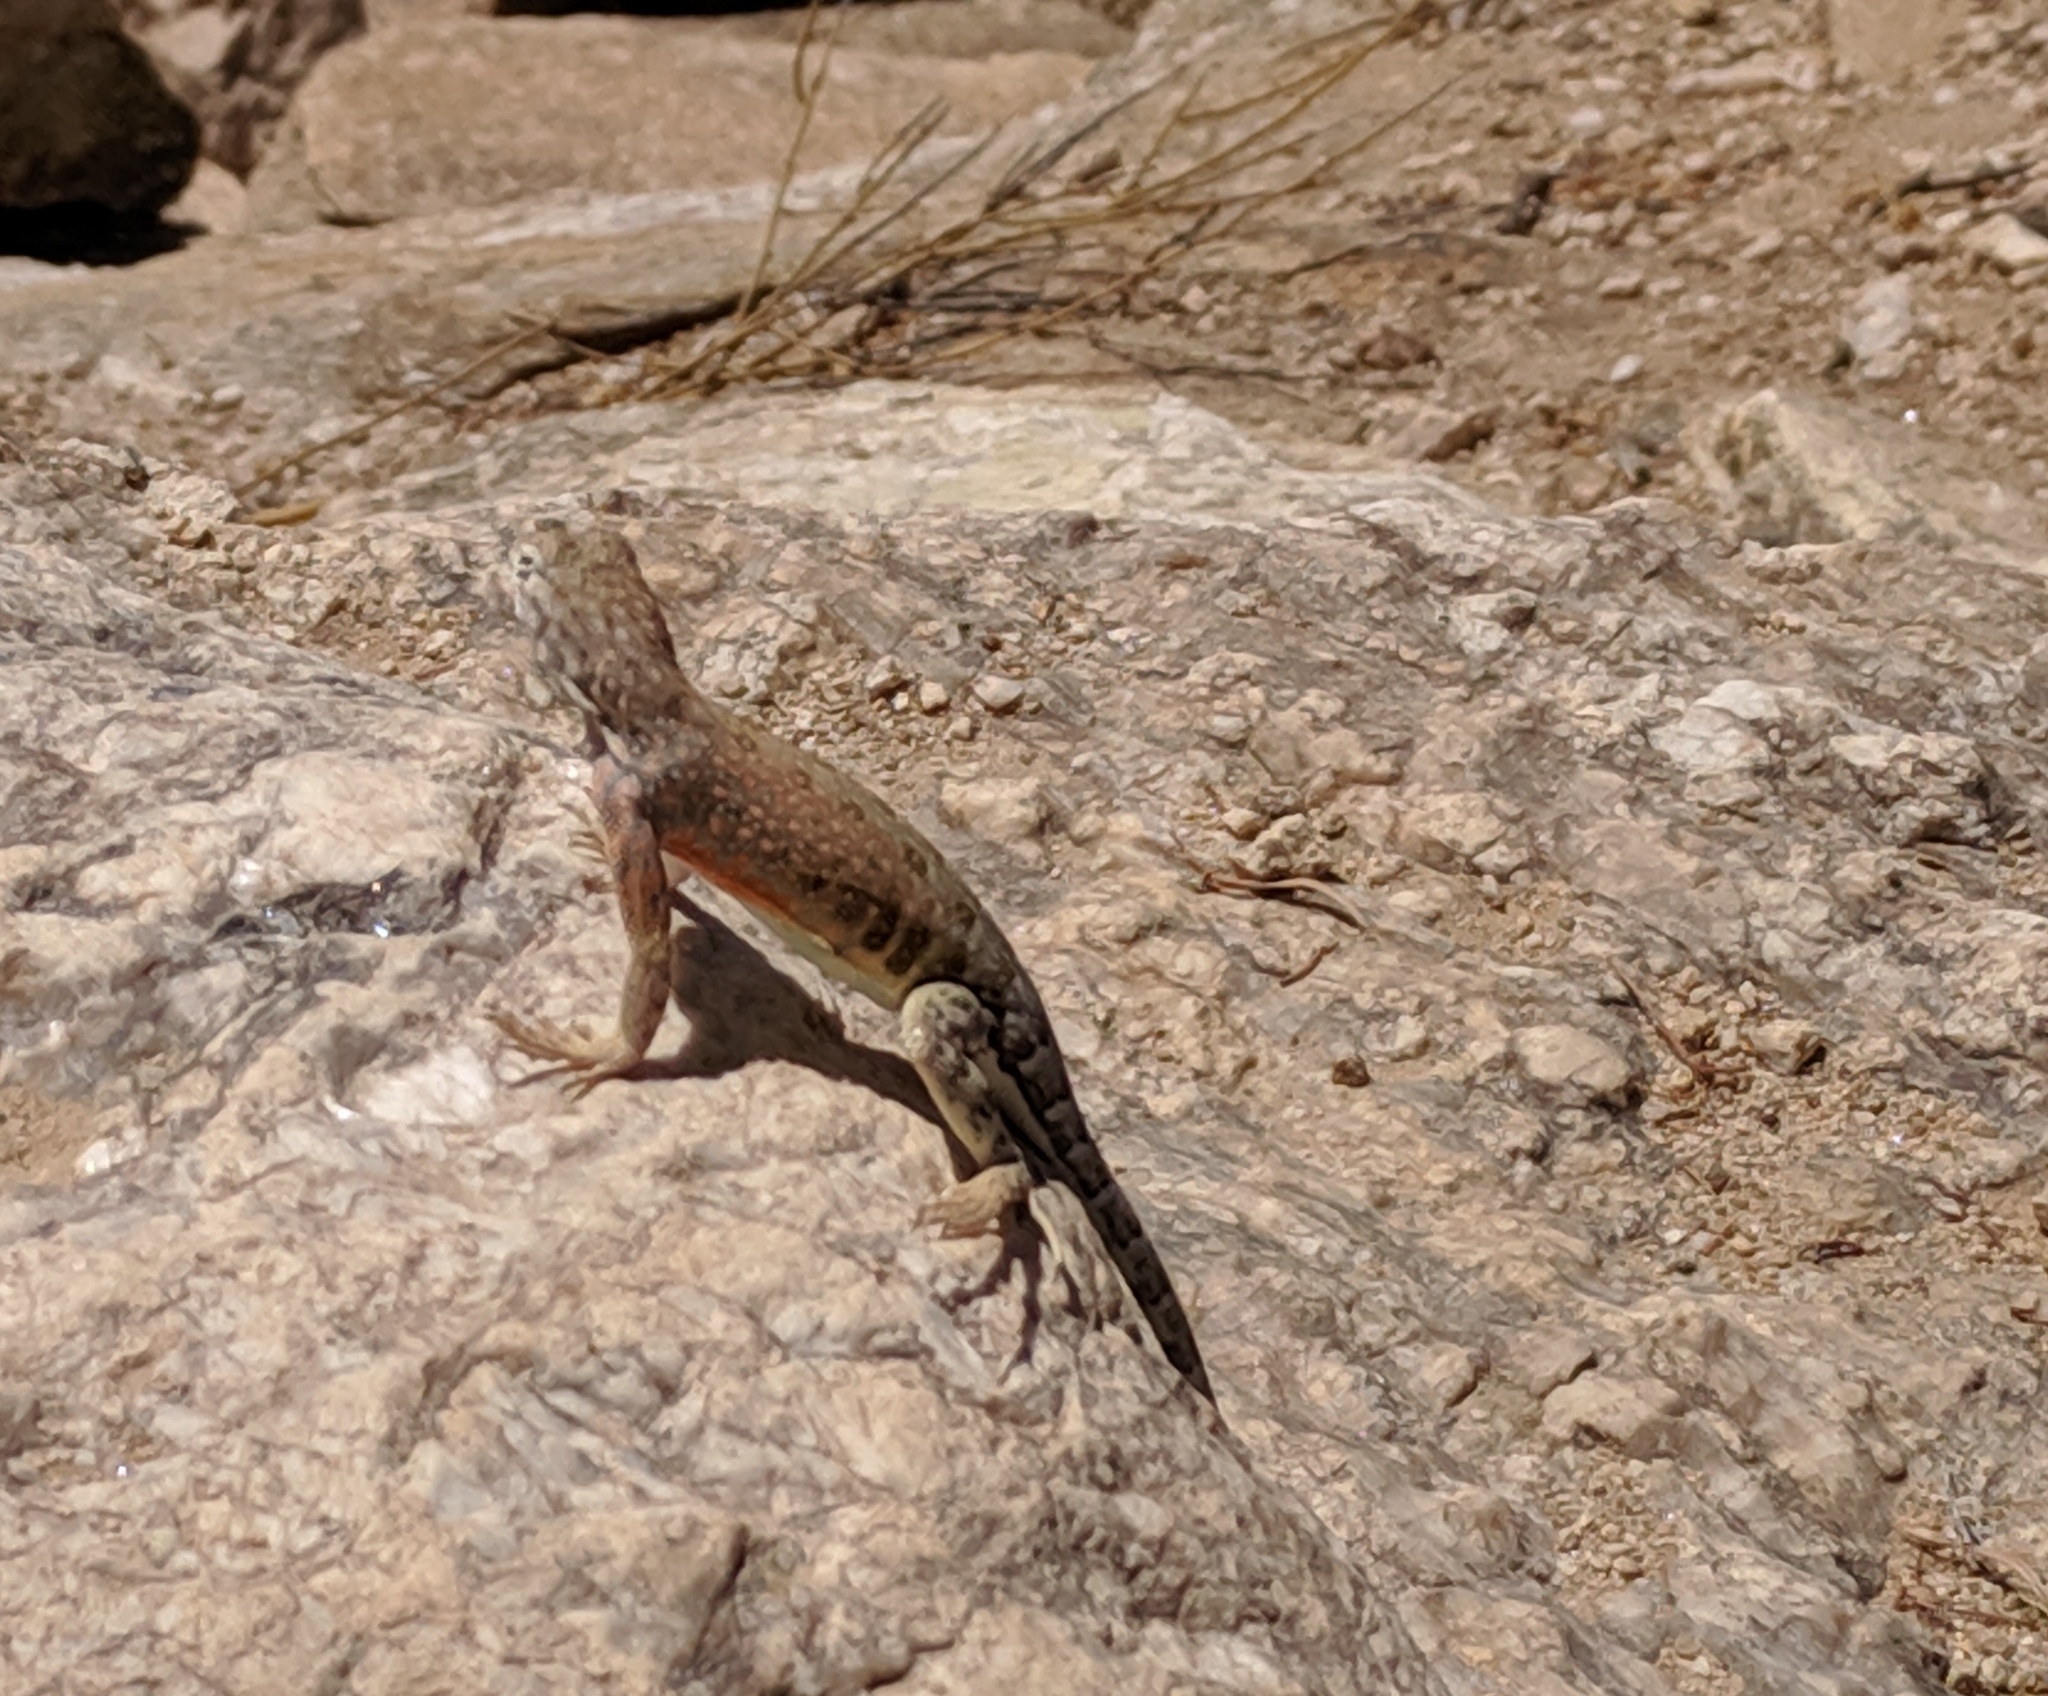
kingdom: Animalia
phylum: Chordata
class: Squamata
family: Phrynosomatidae
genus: Cophosaurus
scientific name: Cophosaurus texanus
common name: Greater earless lizard
